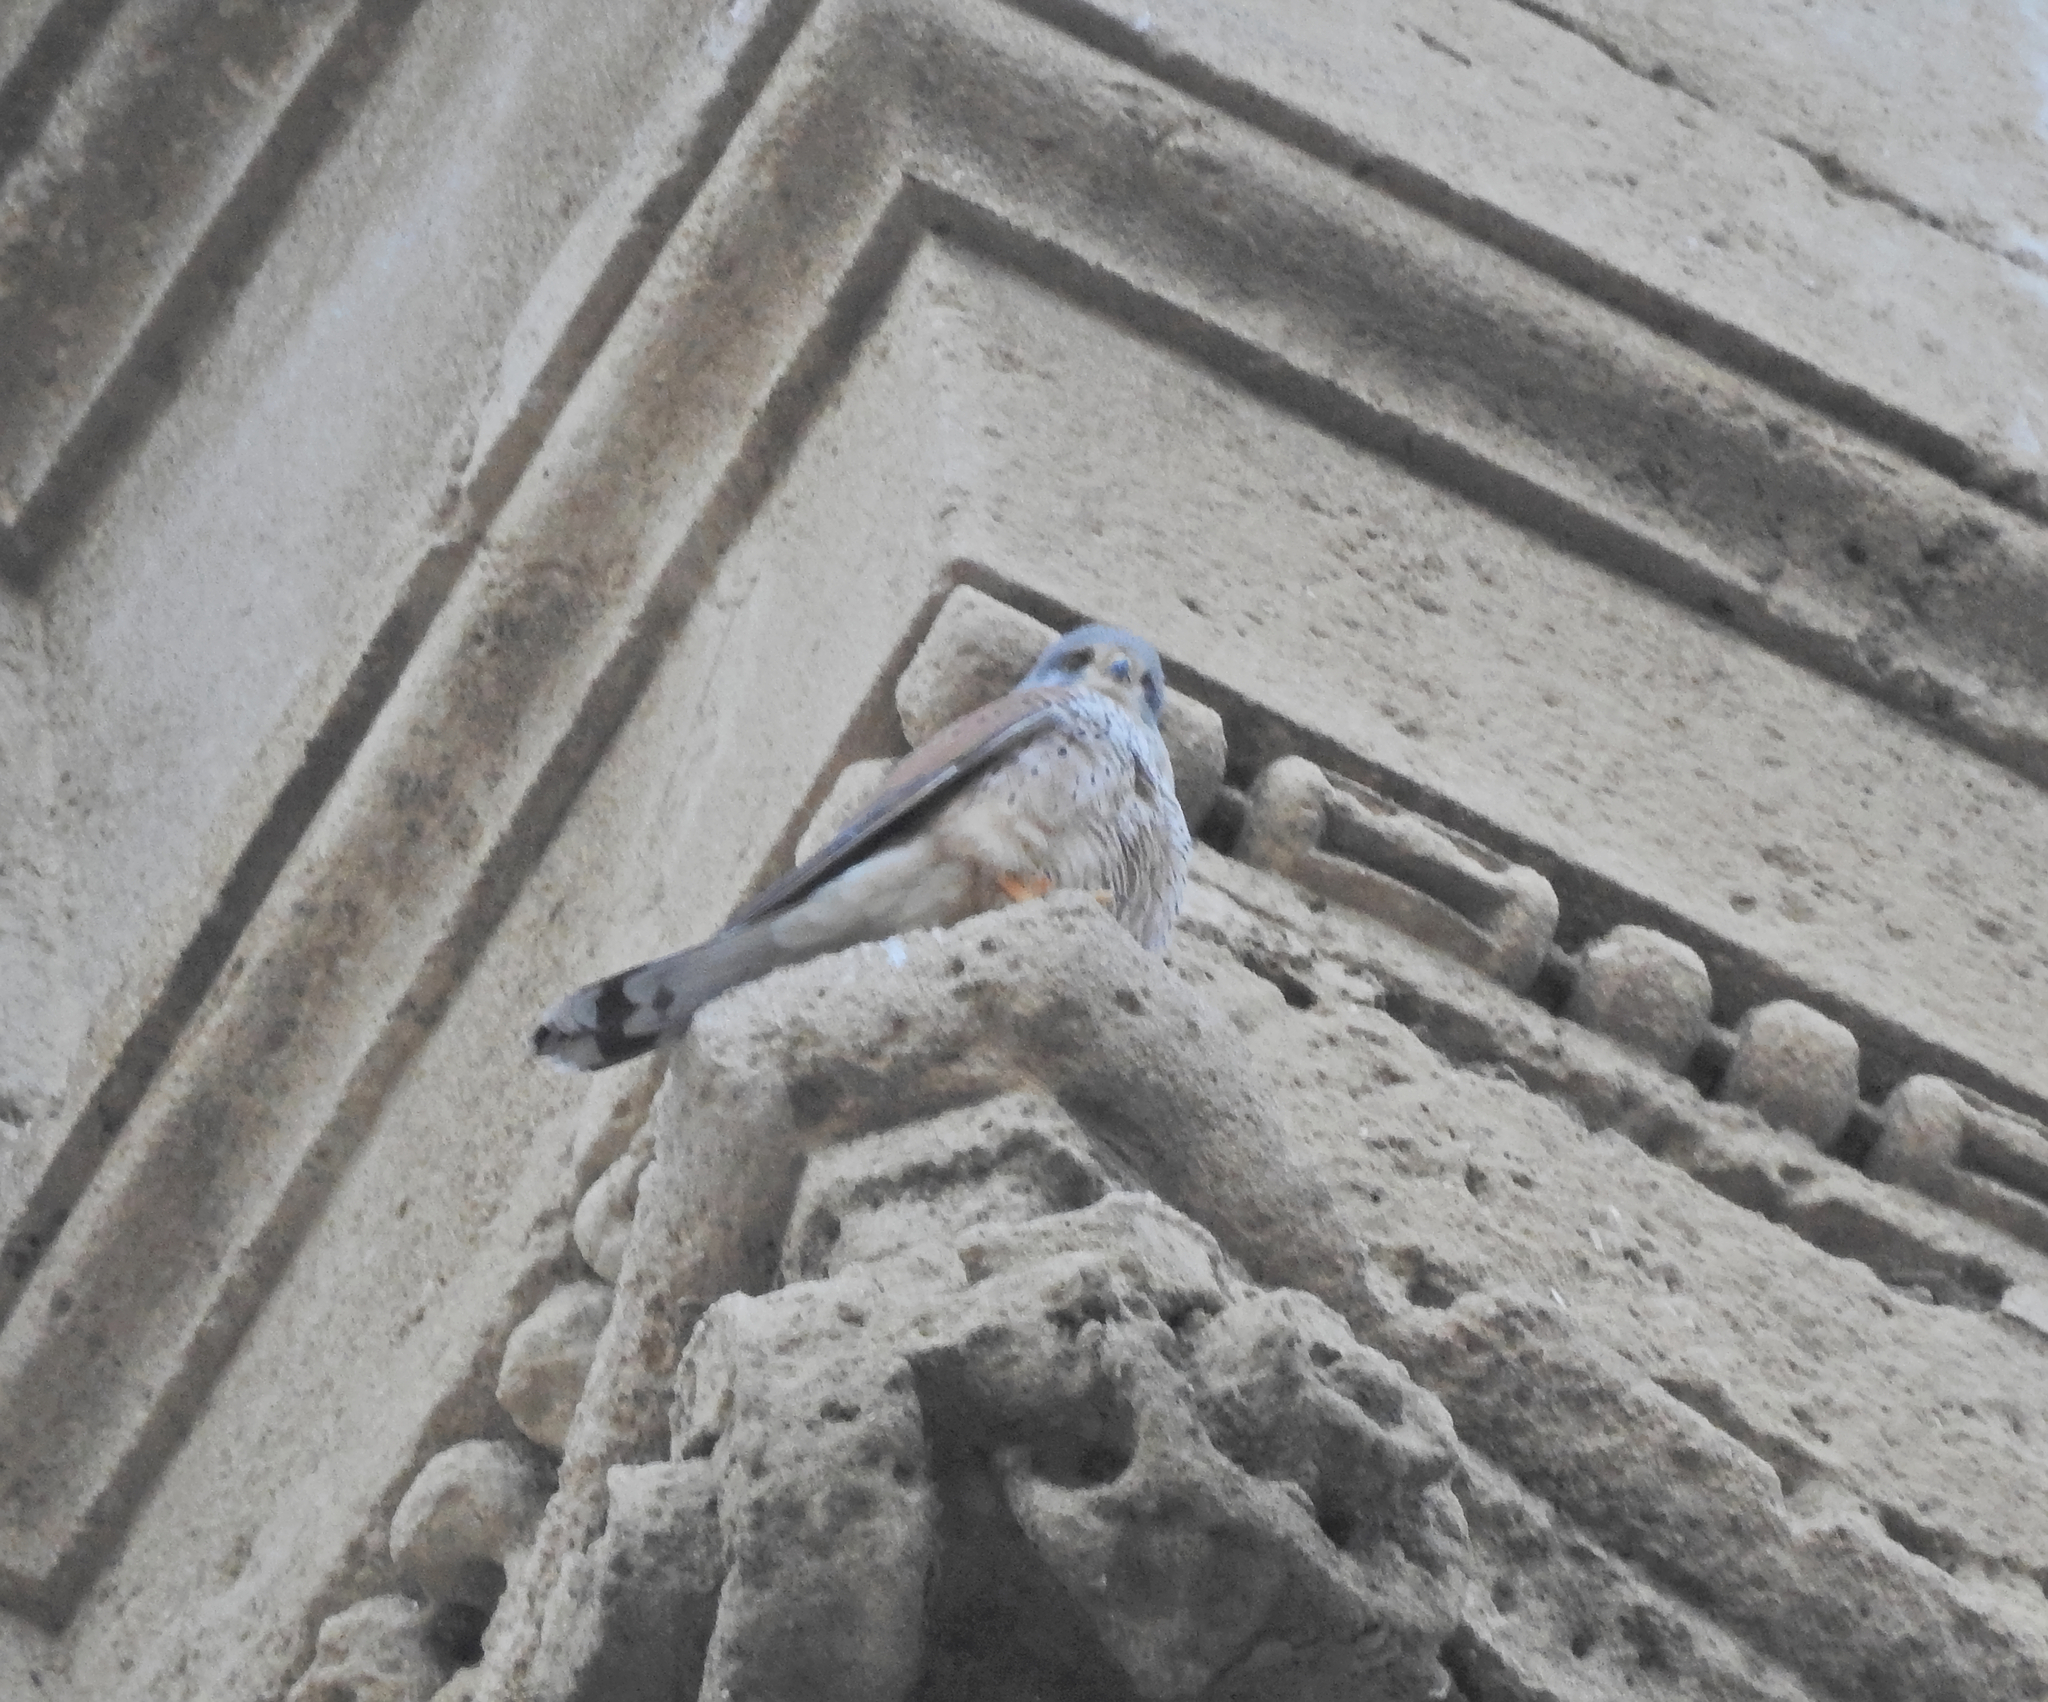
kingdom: Animalia
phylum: Chordata
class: Aves
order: Falconiformes
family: Falconidae
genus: Falco
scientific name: Falco tinnunculus
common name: Common kestrel
